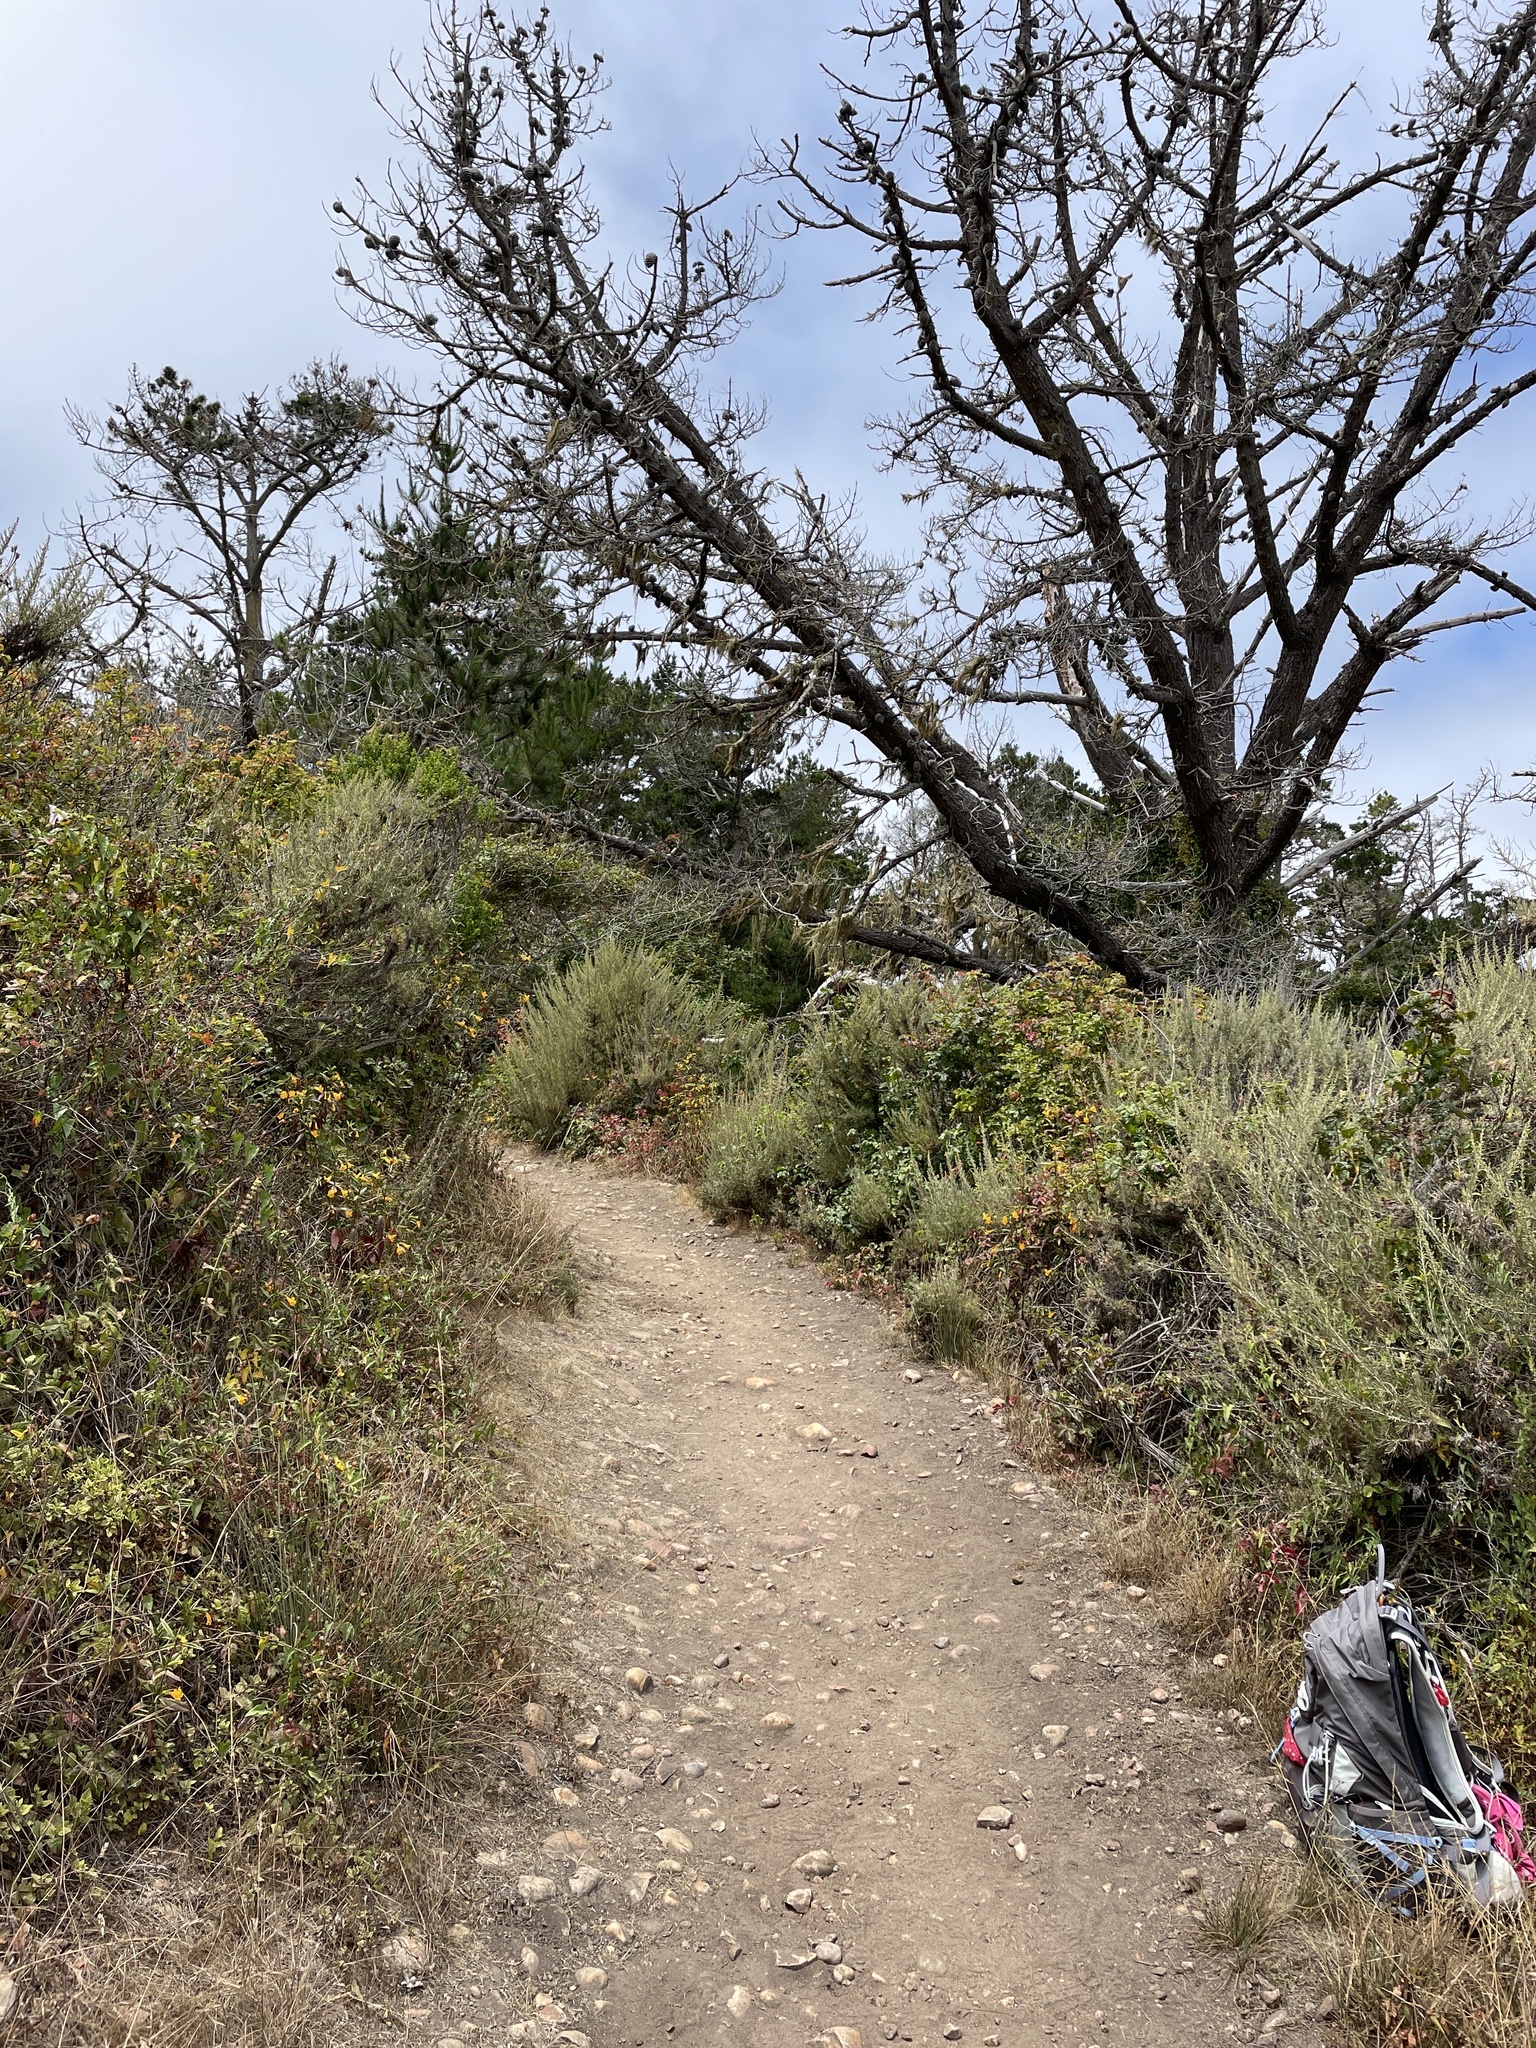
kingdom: Plantae
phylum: Tracheophyta
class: Liliopsida
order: Asparagales
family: Orchidaceae
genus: Platanthera
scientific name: Platanthera elegans
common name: Coast piperia
